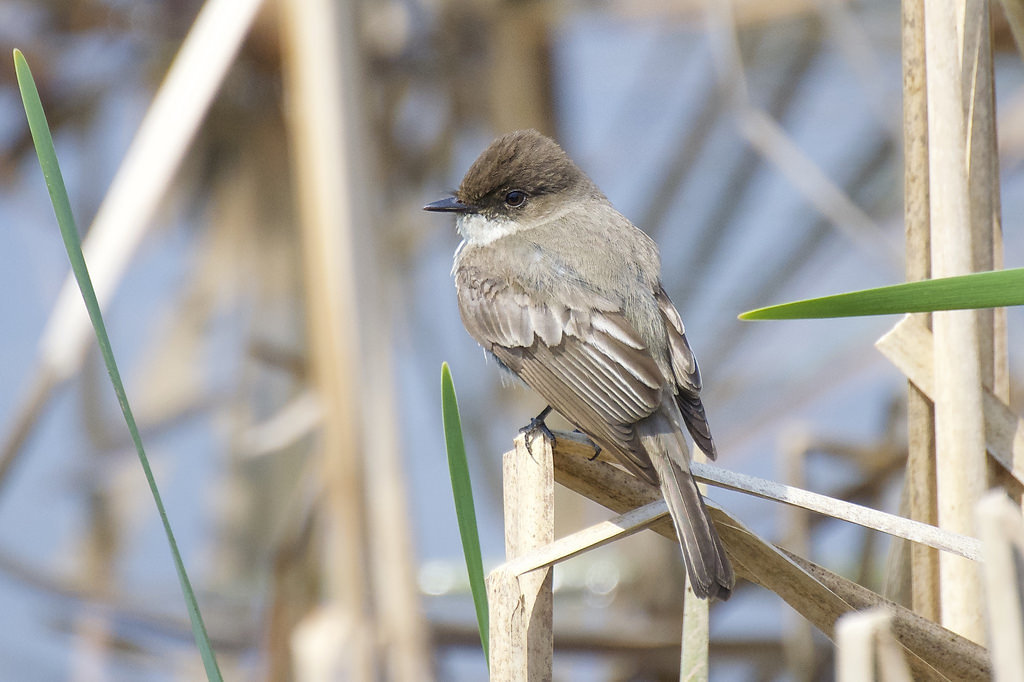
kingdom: Animalia
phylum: Chordata
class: Aves
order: Passeriformes
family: Tyrannidae
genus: Sayornis
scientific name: Sayornis phoebe
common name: Eastern phoebe
